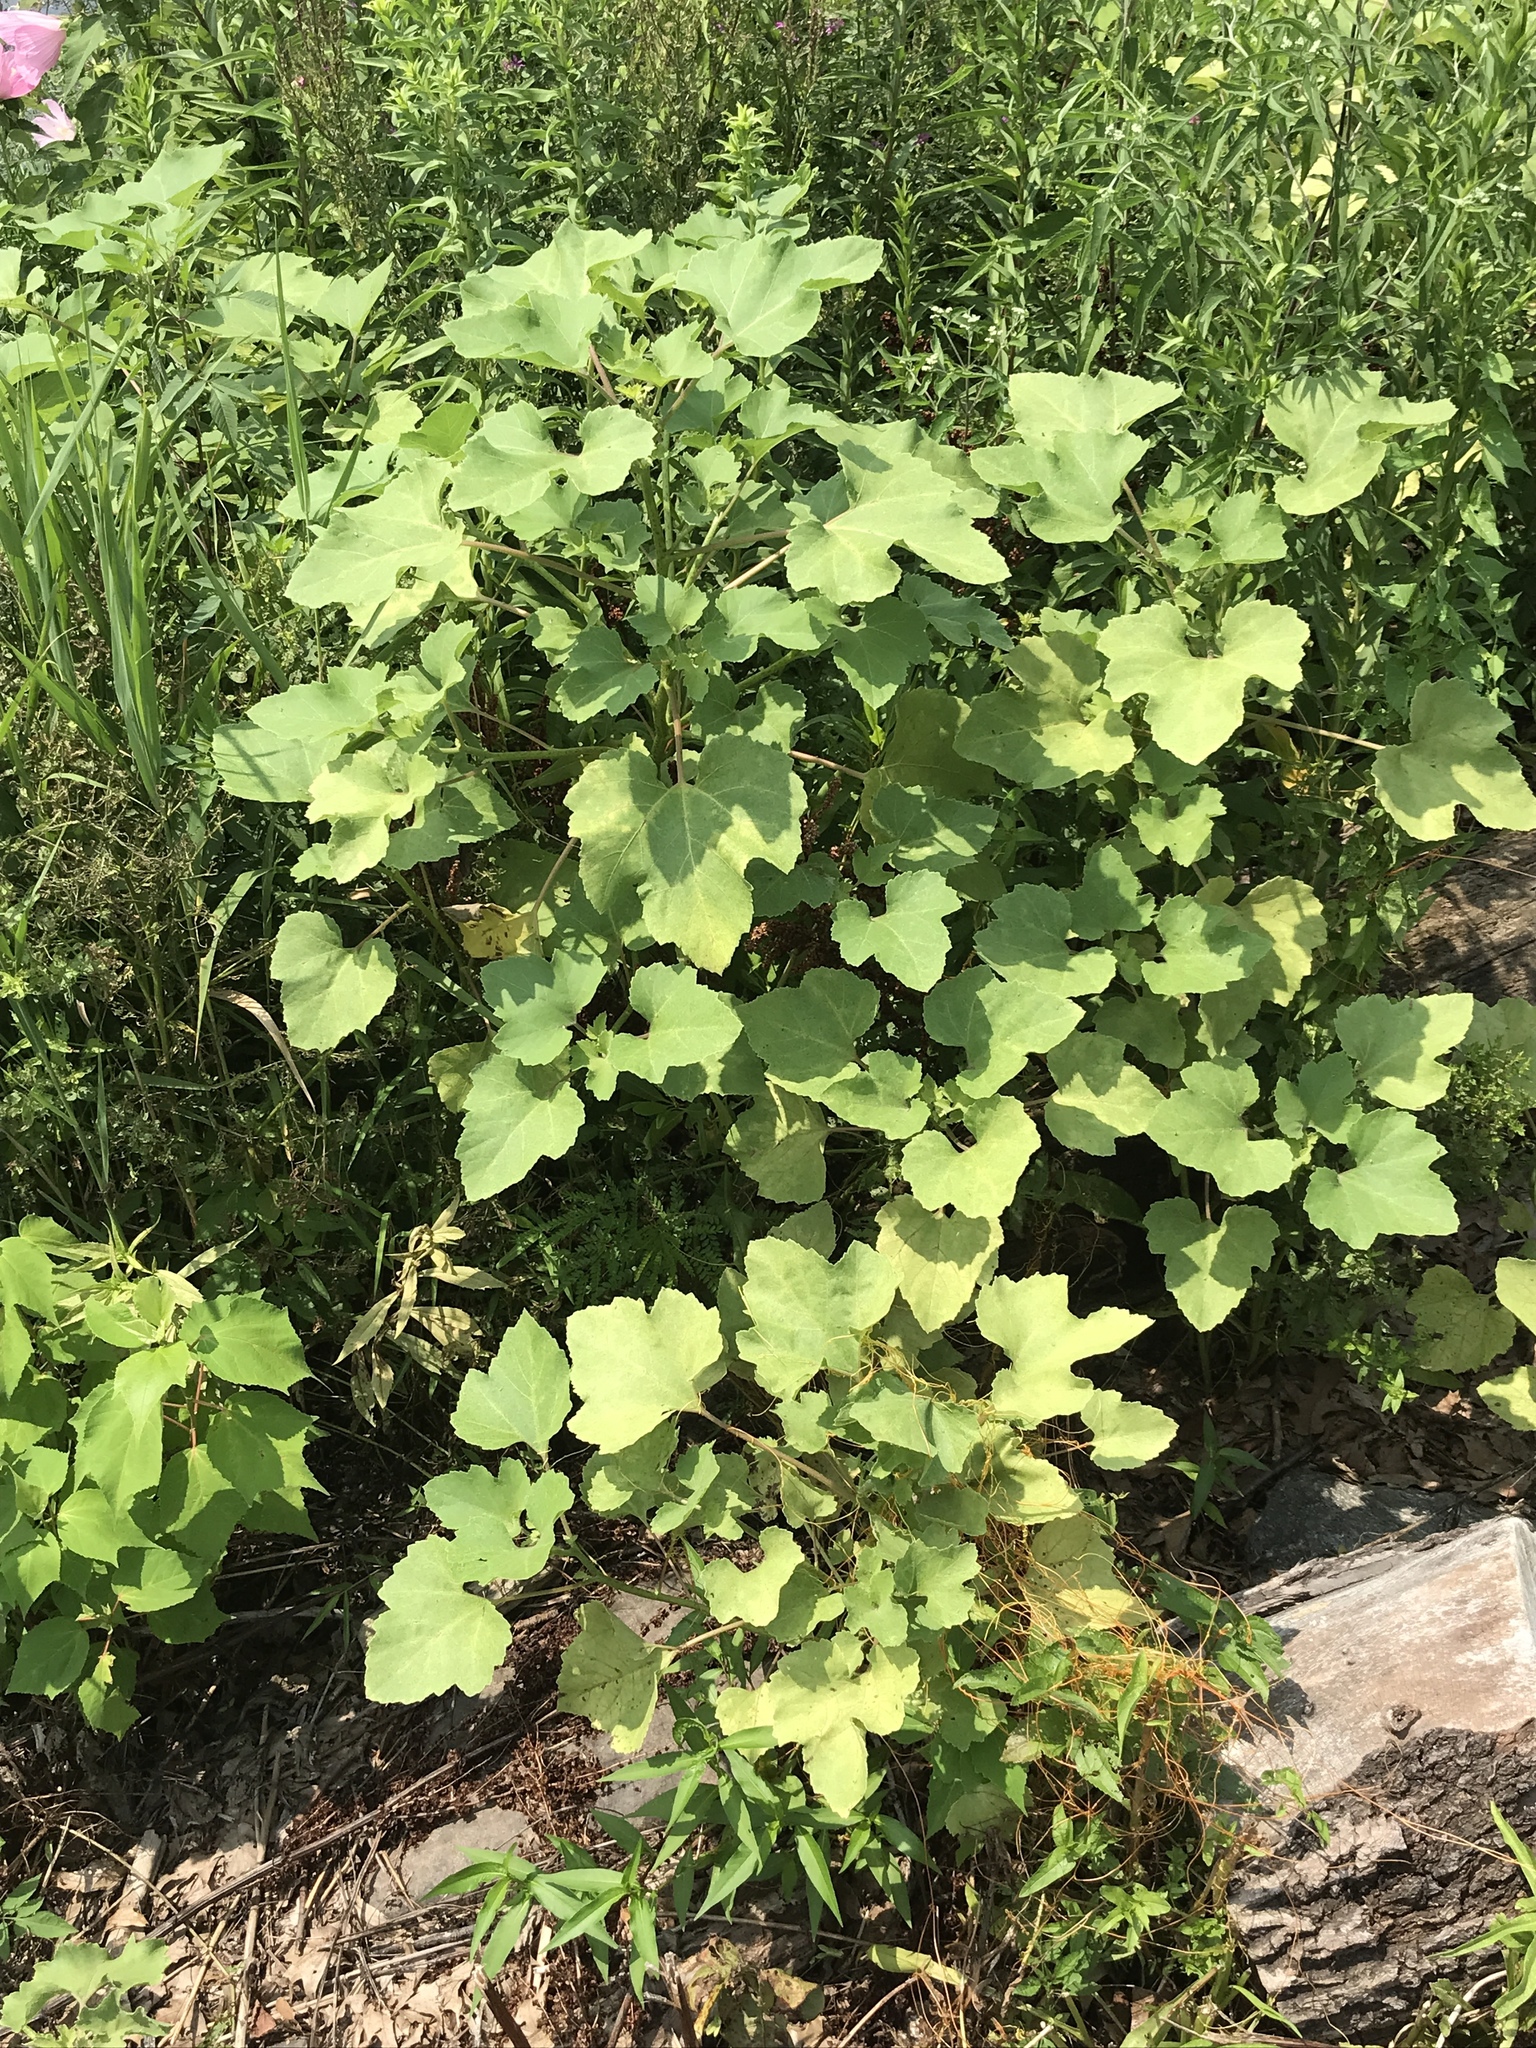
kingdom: Plantae
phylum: Tracheophyta
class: Magnoliopsida
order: Asterales
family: Asteraceae
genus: Xanthium
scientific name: Xanthium strumarium
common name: Rough cocklebur
